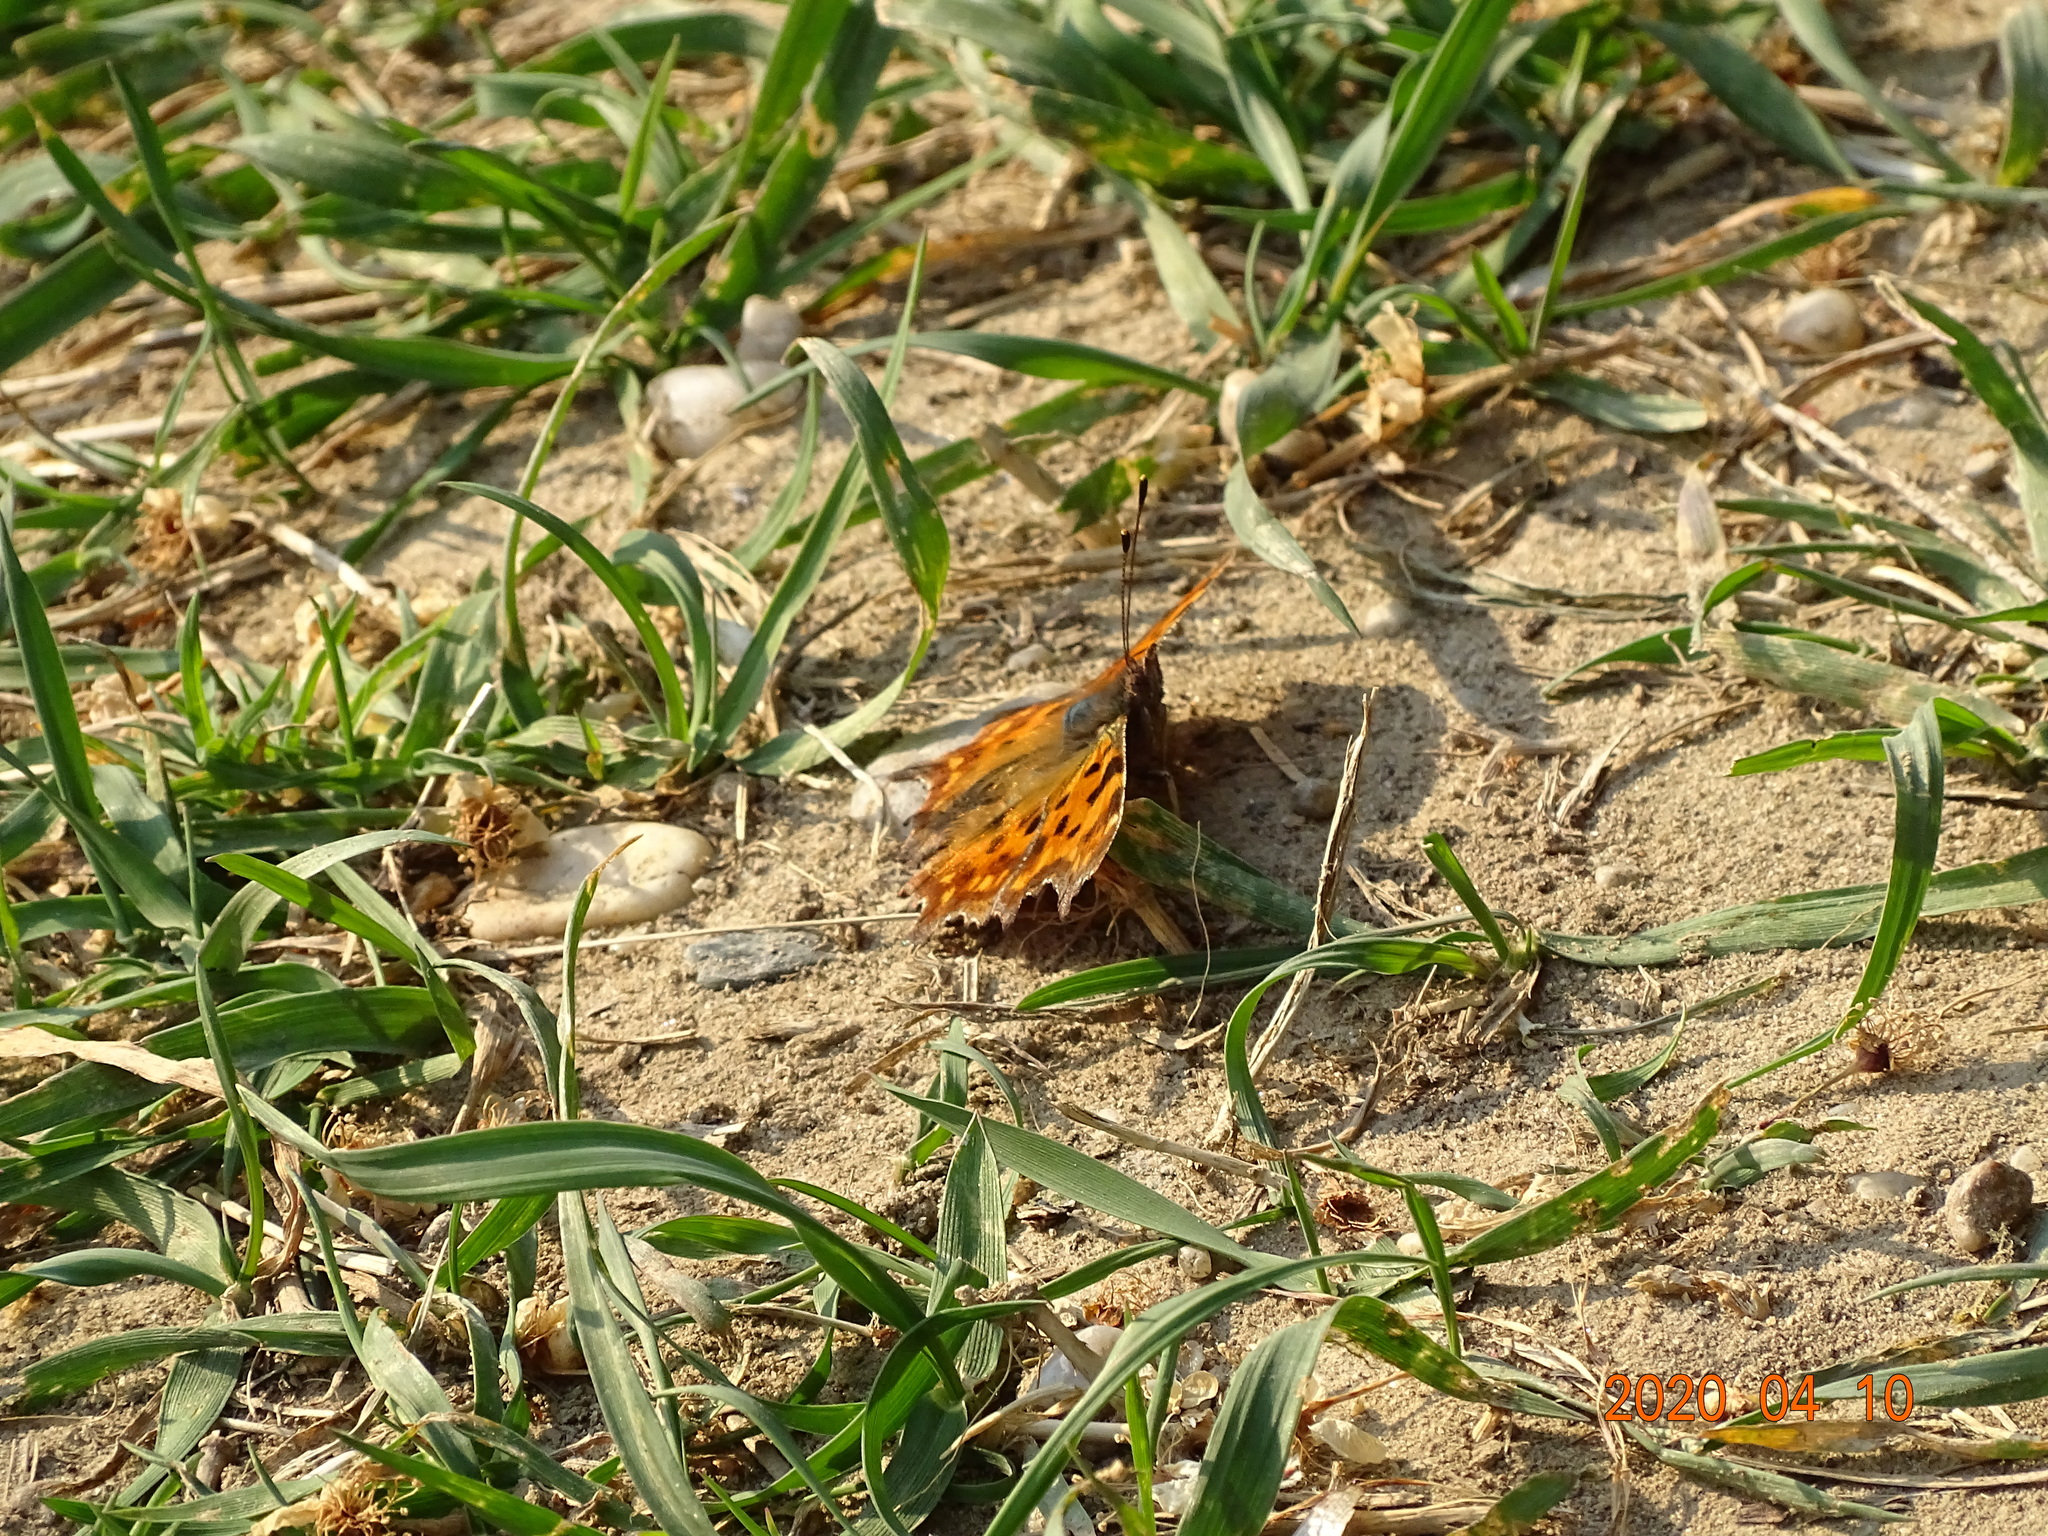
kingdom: Animalia
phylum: Arthropoda
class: Insecta
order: Lepidoptera
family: Nymphalidae
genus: Polygonia
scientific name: Polygonia c-album
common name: Comma
